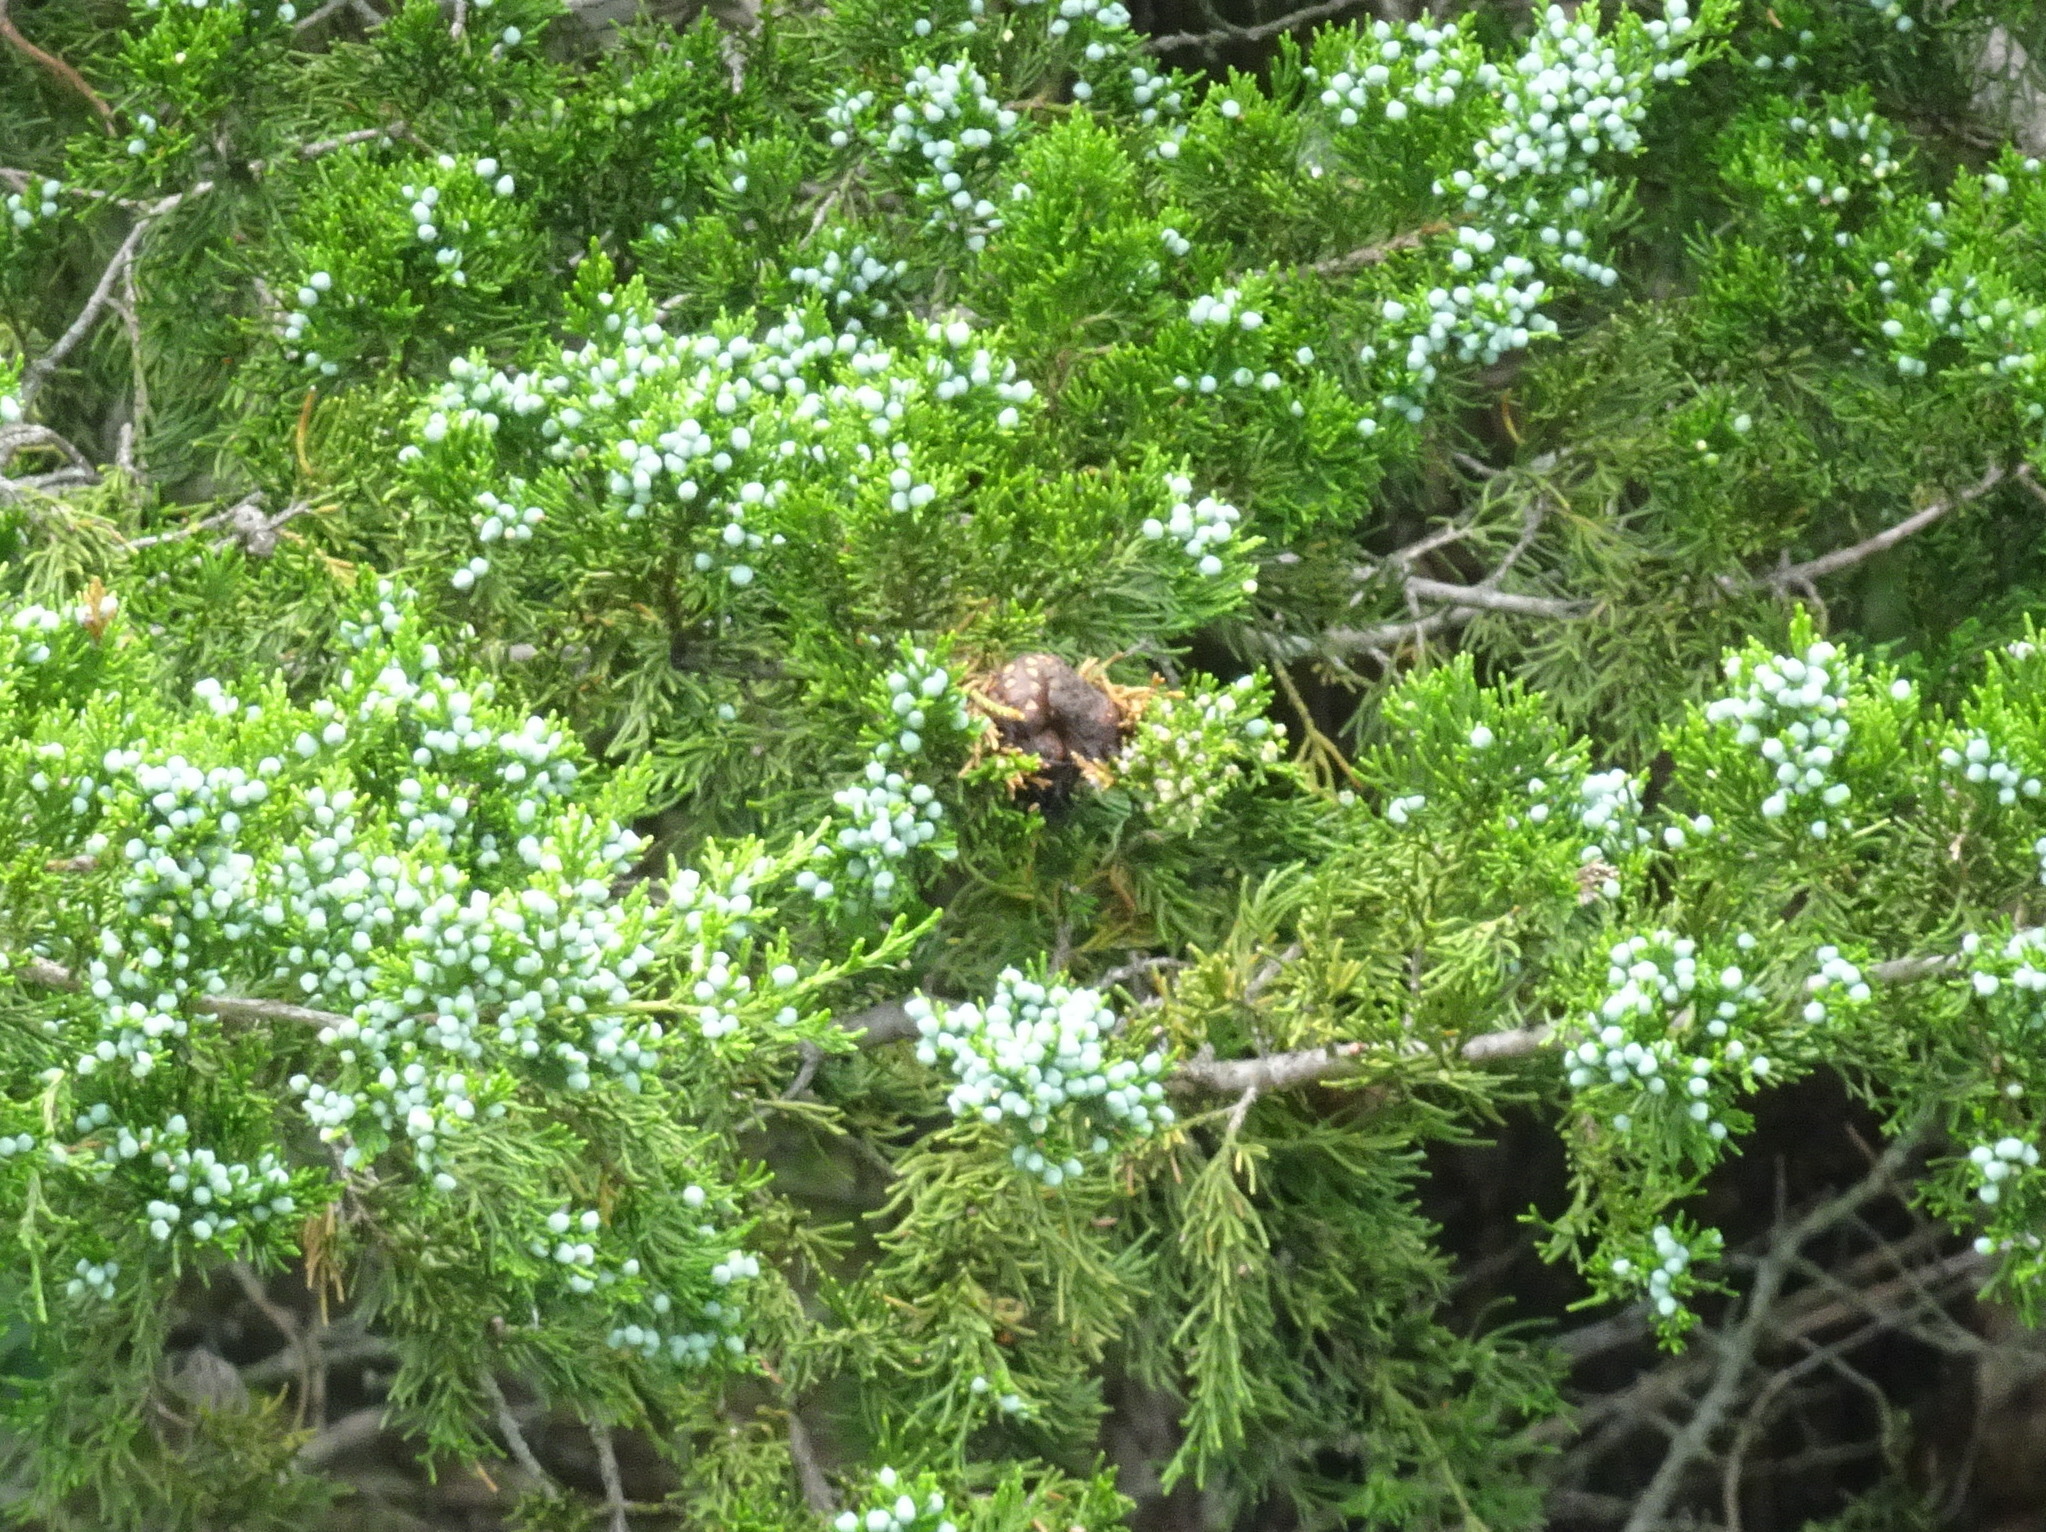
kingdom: Fungi
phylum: Basidiomycota
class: Pucciniomycetes
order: Pucciniales
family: Gymnosporangiaceae
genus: Gymnosporangium
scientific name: Gymnosporangium juniperi-virginianae
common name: Juniper-apple rust
